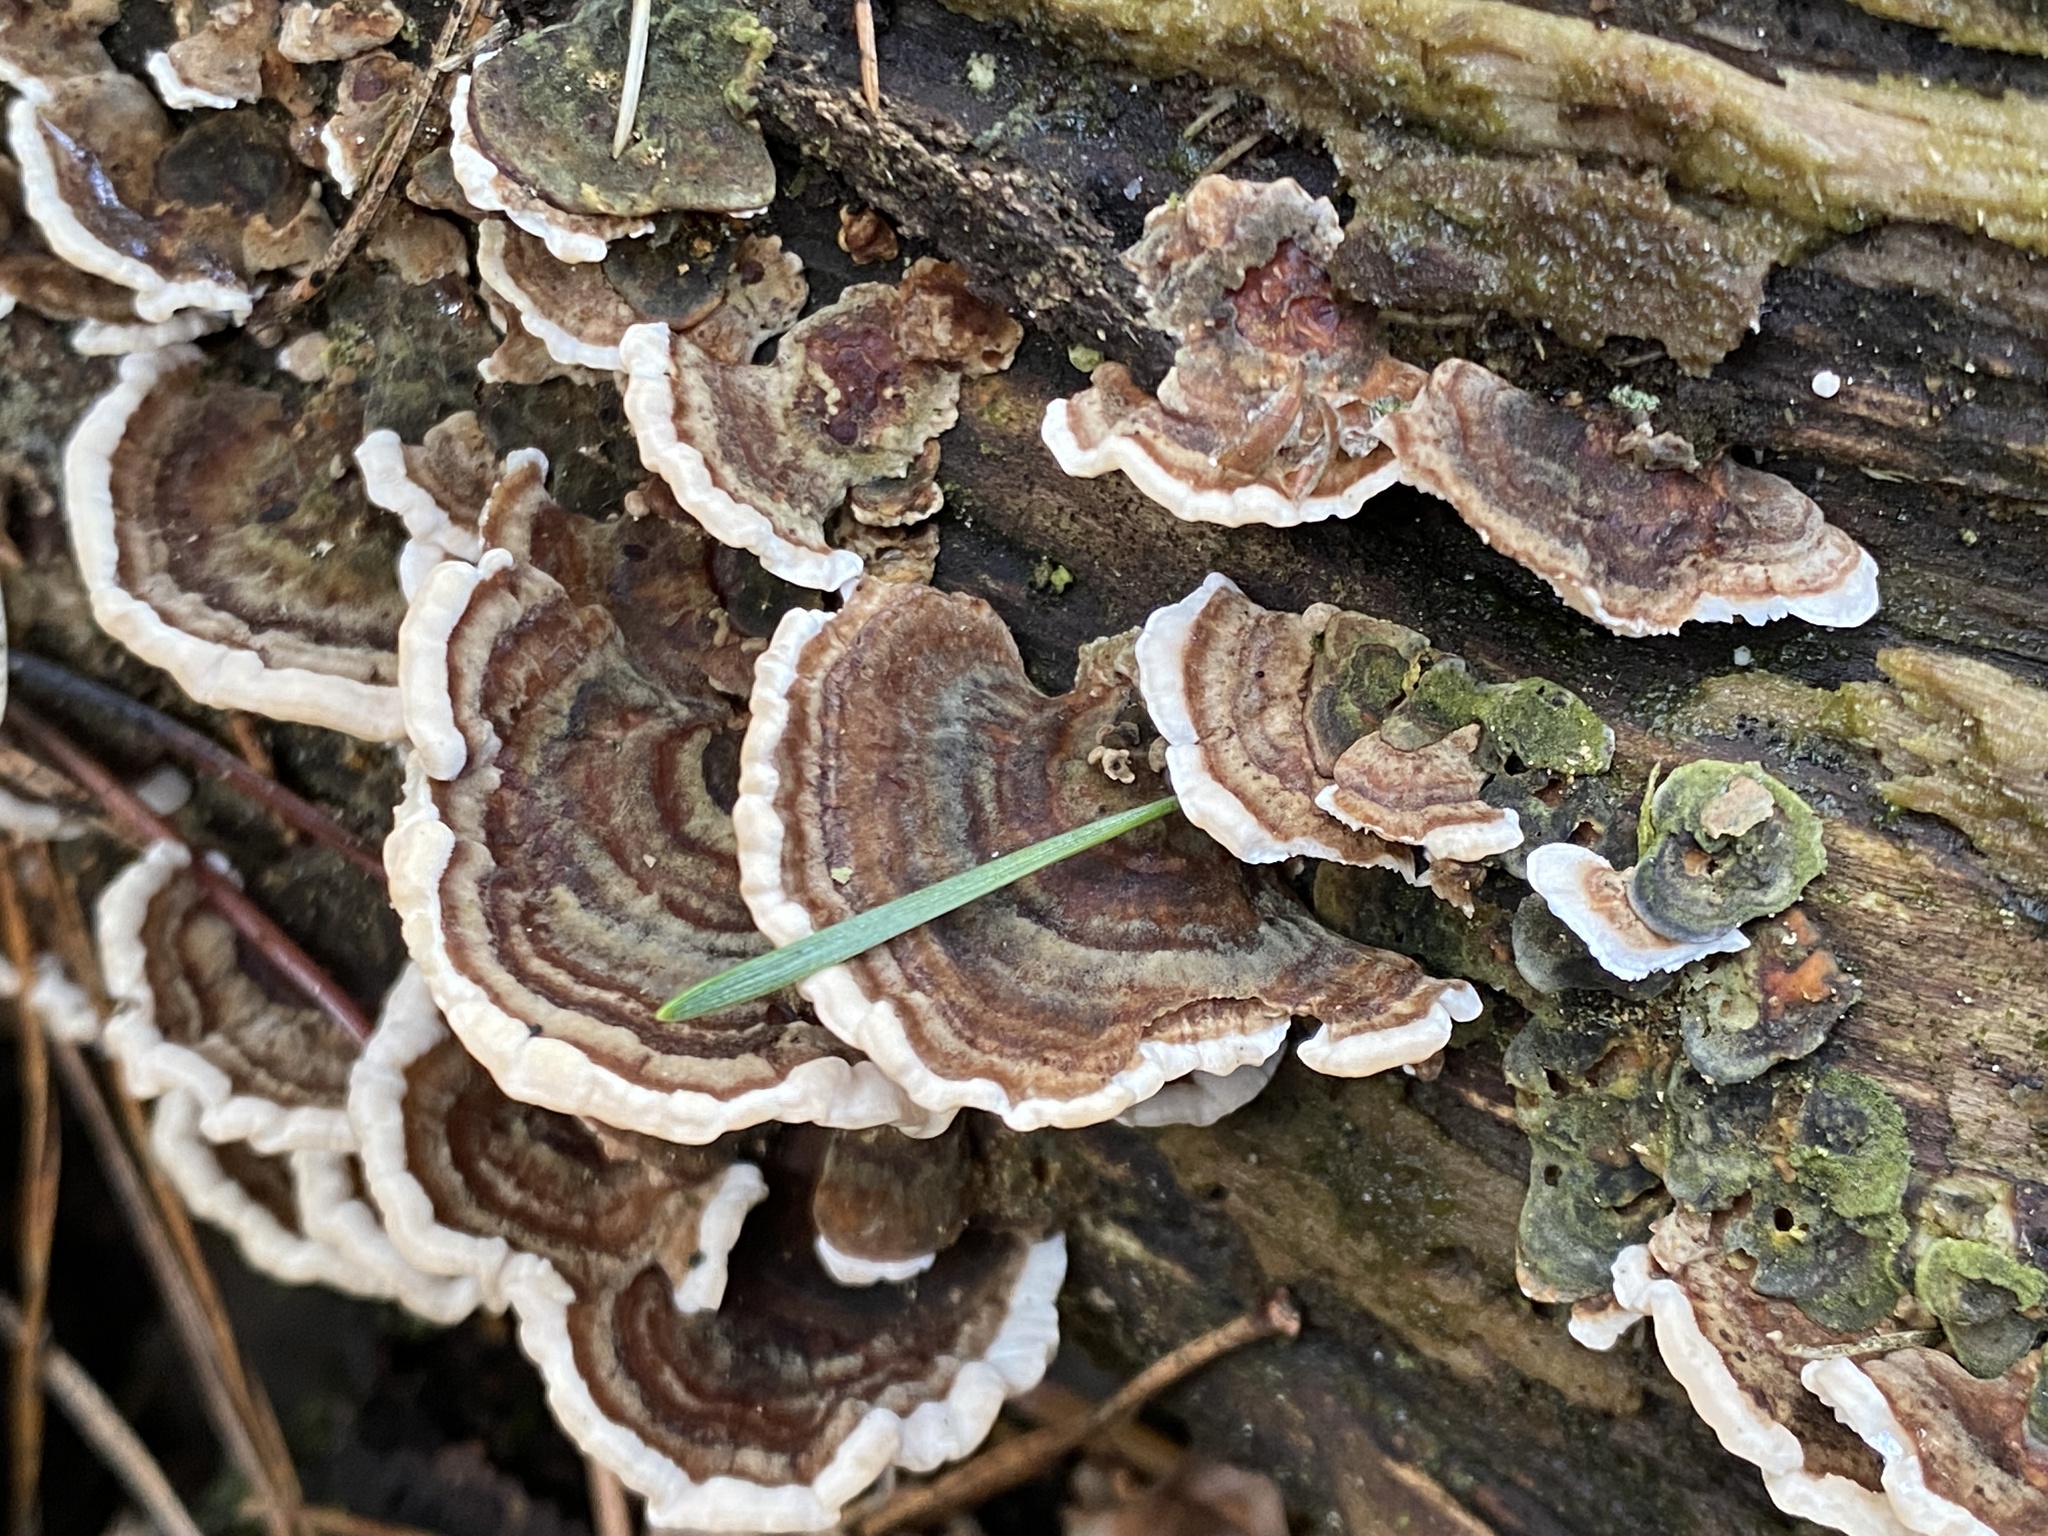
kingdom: Fungi
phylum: Basidiomycota
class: Agaricomycetes
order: Polyporales
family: Polyporaceae
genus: Trametes
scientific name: Trametes versicolor
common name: Turkeytail
